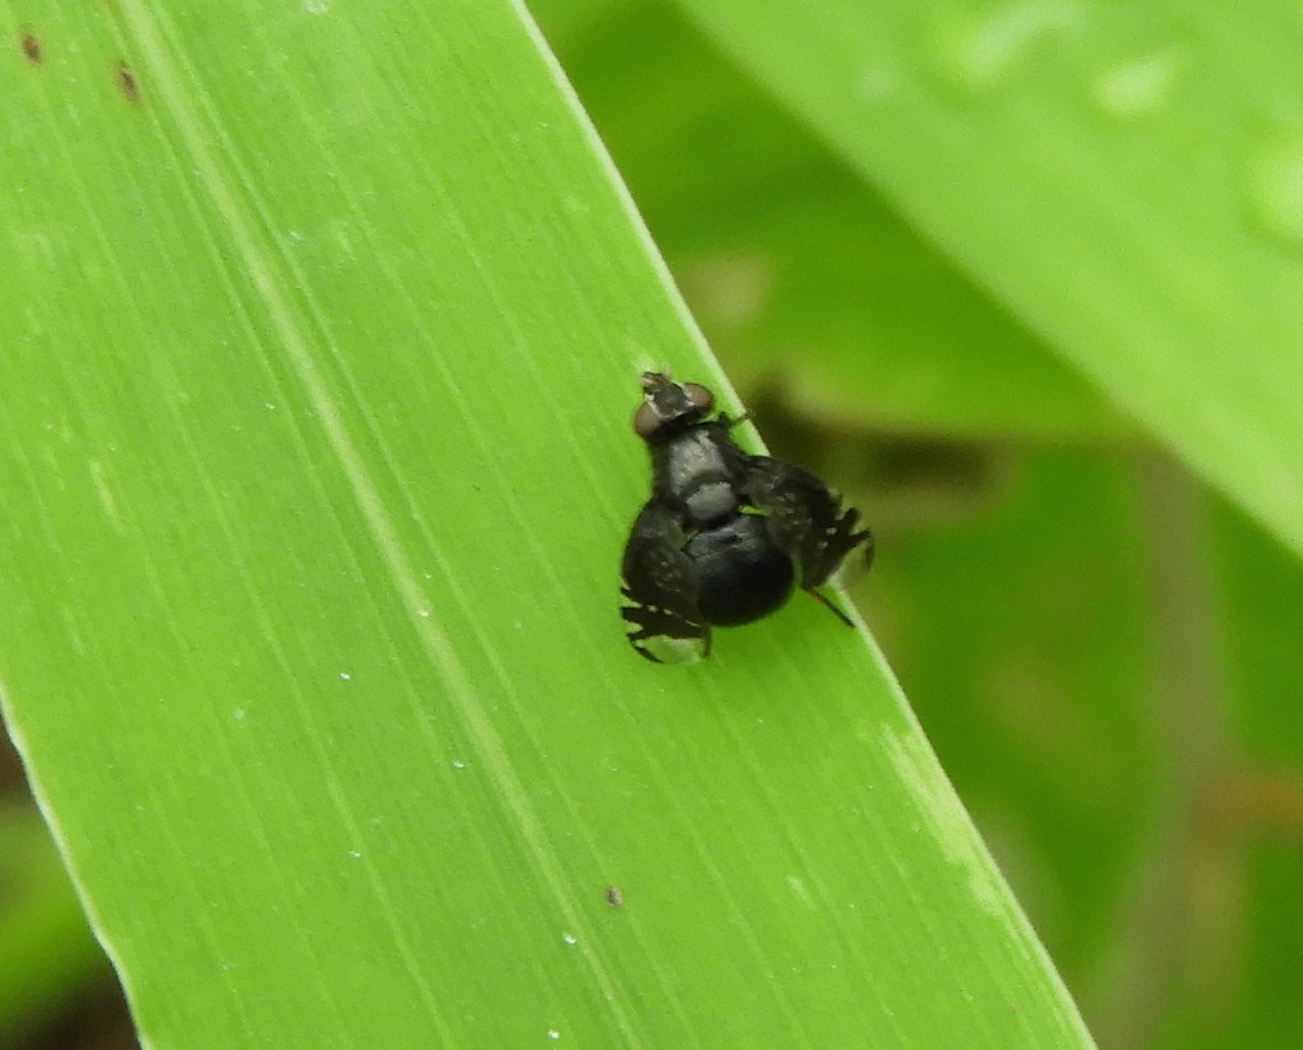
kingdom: Animalia
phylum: Arthropoda
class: Insecta
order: Diptera
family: Platystomatidae
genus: Amphicnephes
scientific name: Amphicnephes stellatus
